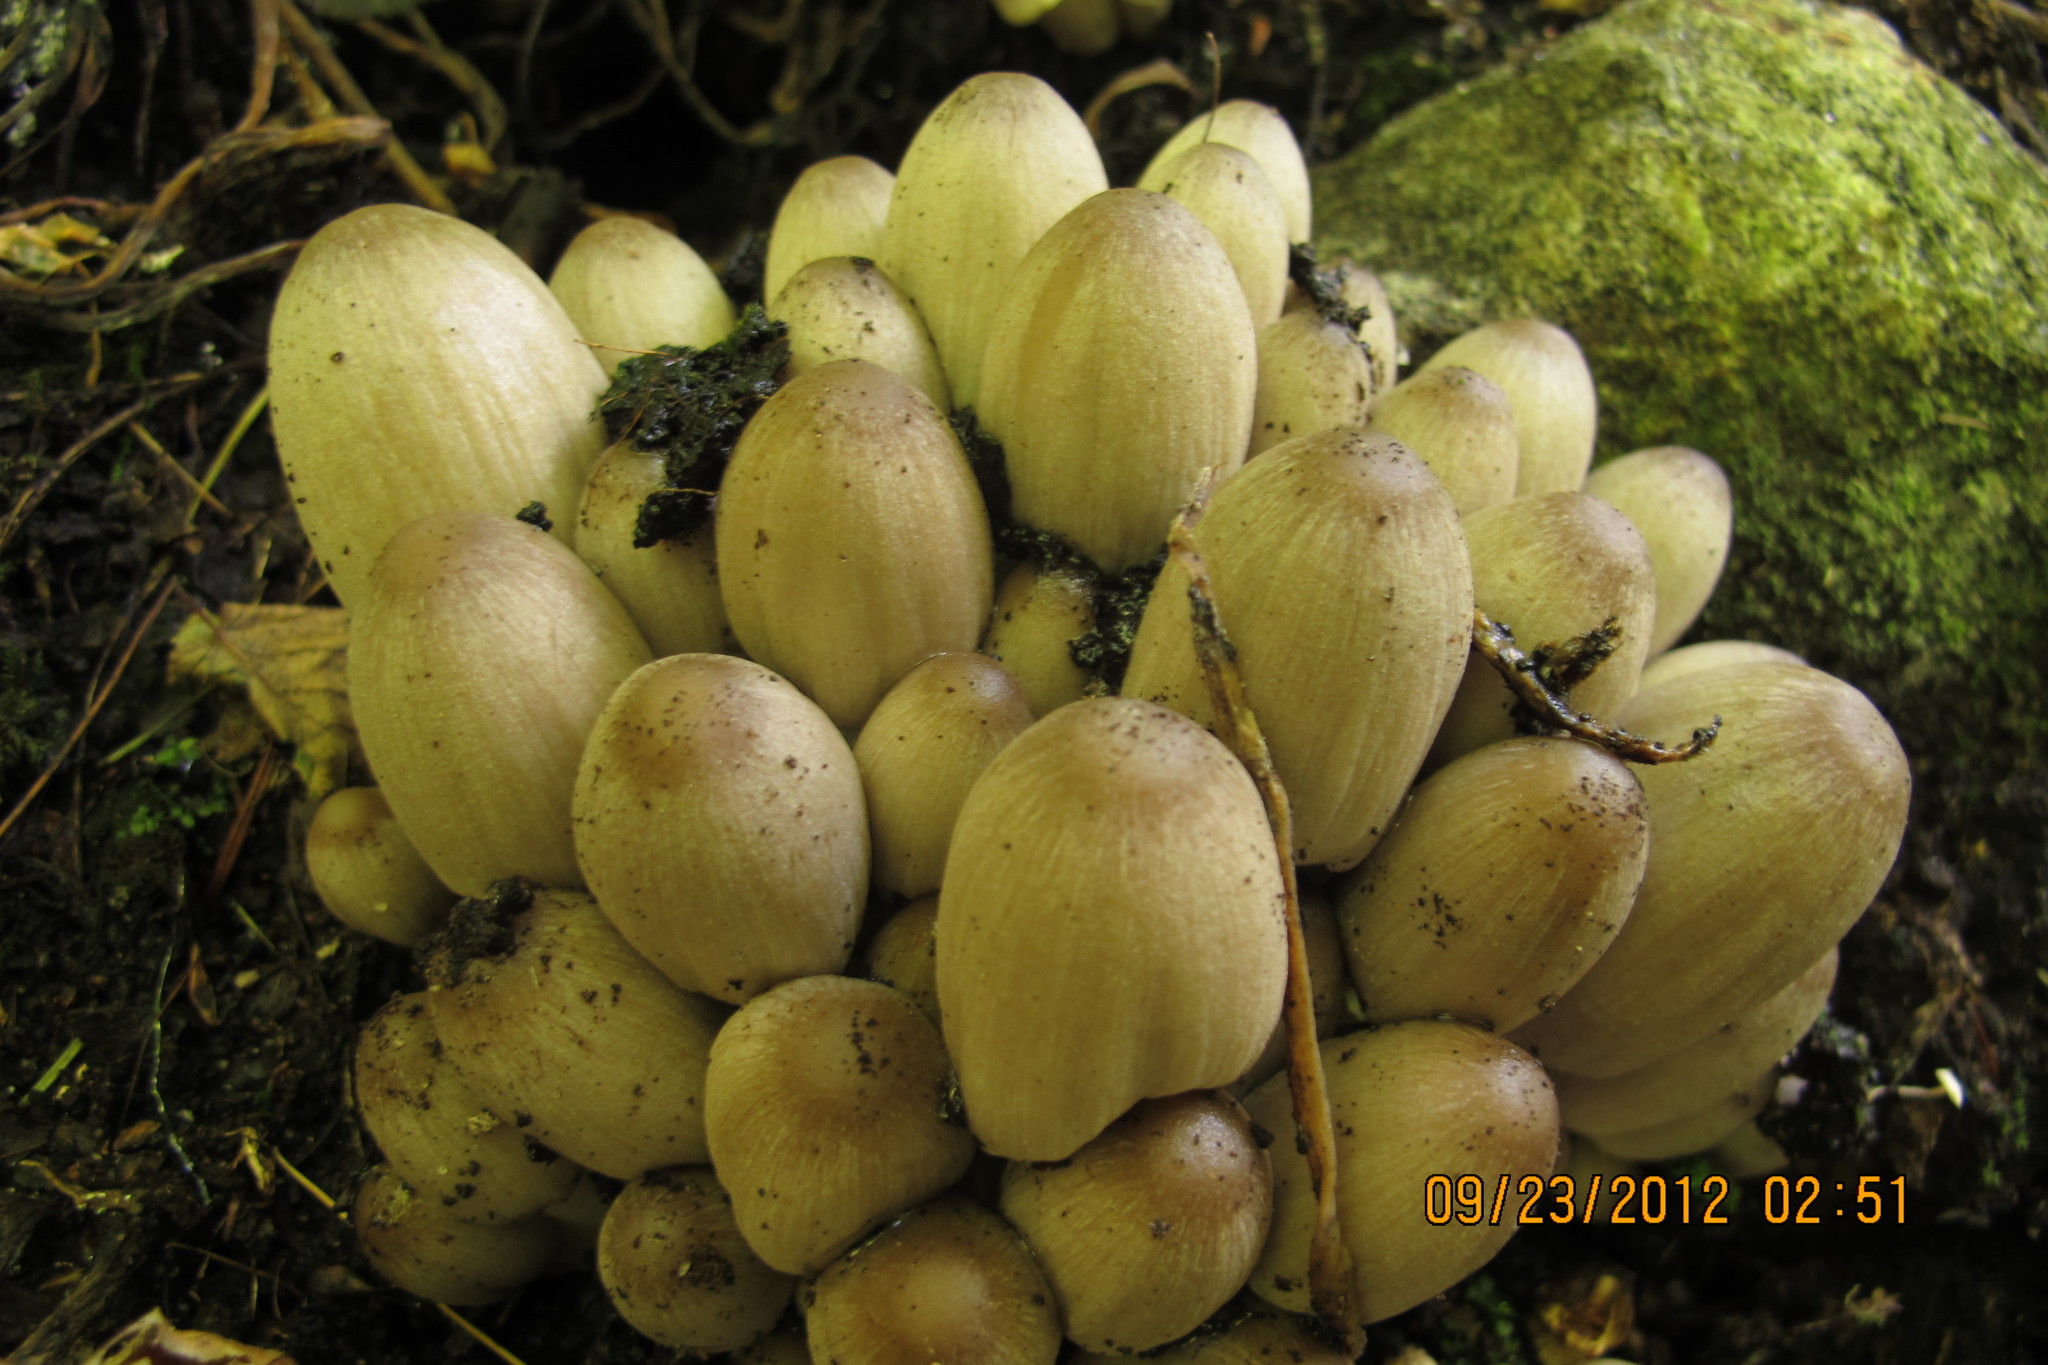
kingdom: Fungi
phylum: Basidiomycota
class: Agaricomycetes
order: Agaricales
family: Psathyrellaceae
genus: Coprinopsis
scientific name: Coprinopsis acuminata
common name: Humpback inkcap
